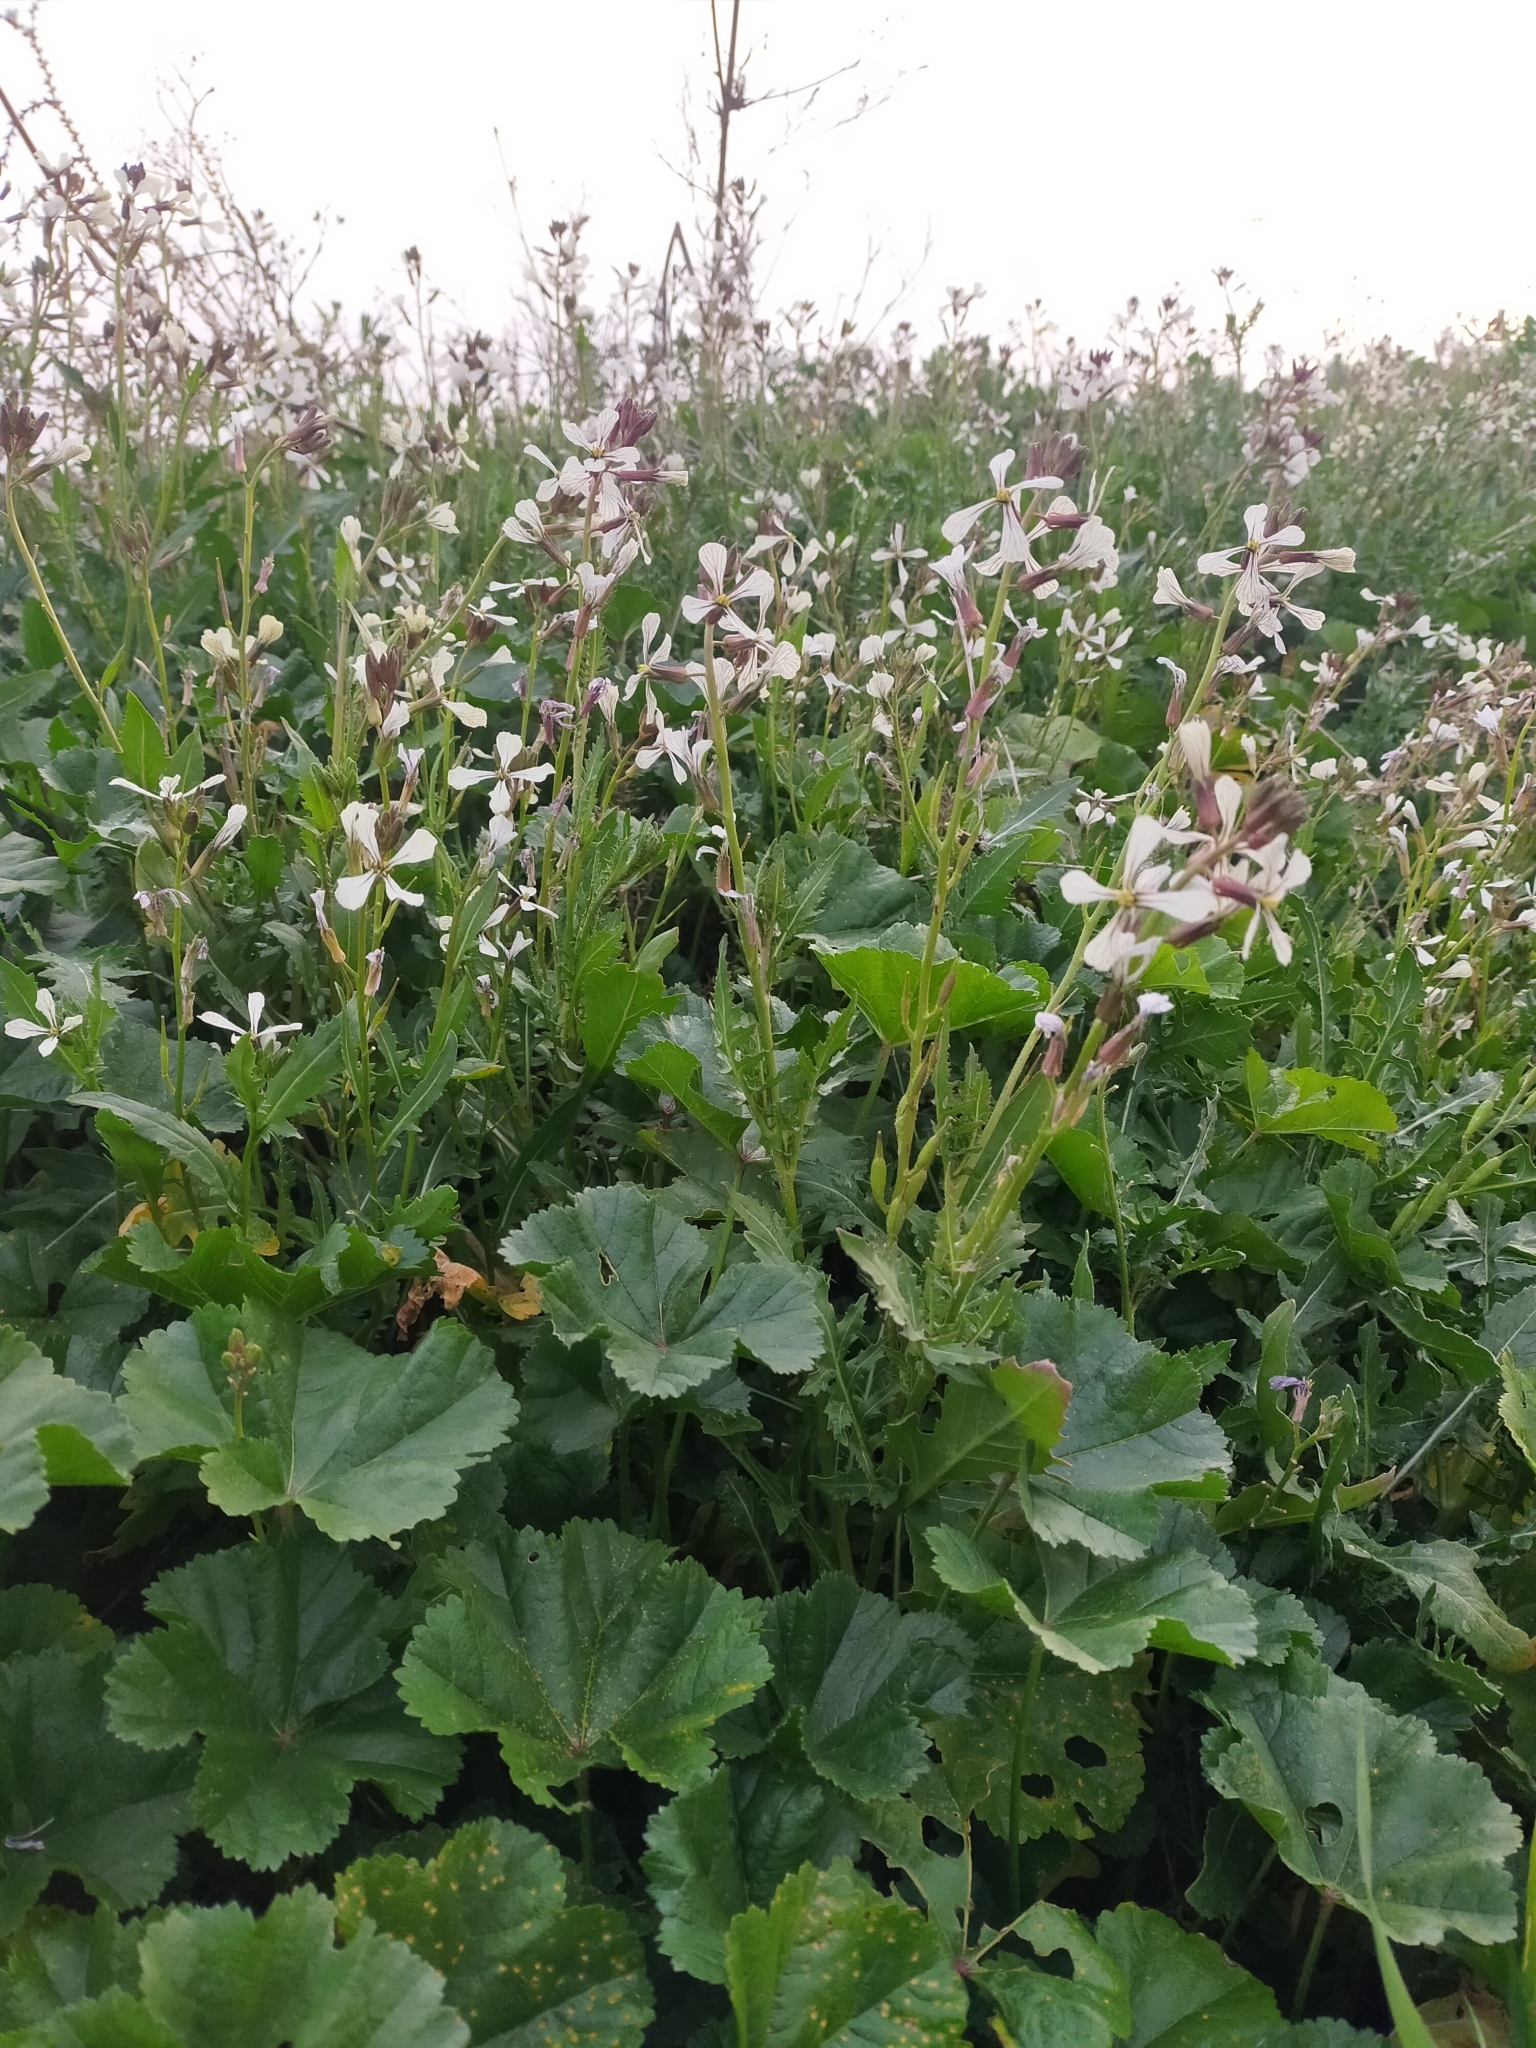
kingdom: Plantae
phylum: Tracheophyta
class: Magnoliopsida
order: Brassicales
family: Brassicaceae
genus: Eruca
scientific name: Eruca vesicaria
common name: Garden rocket
